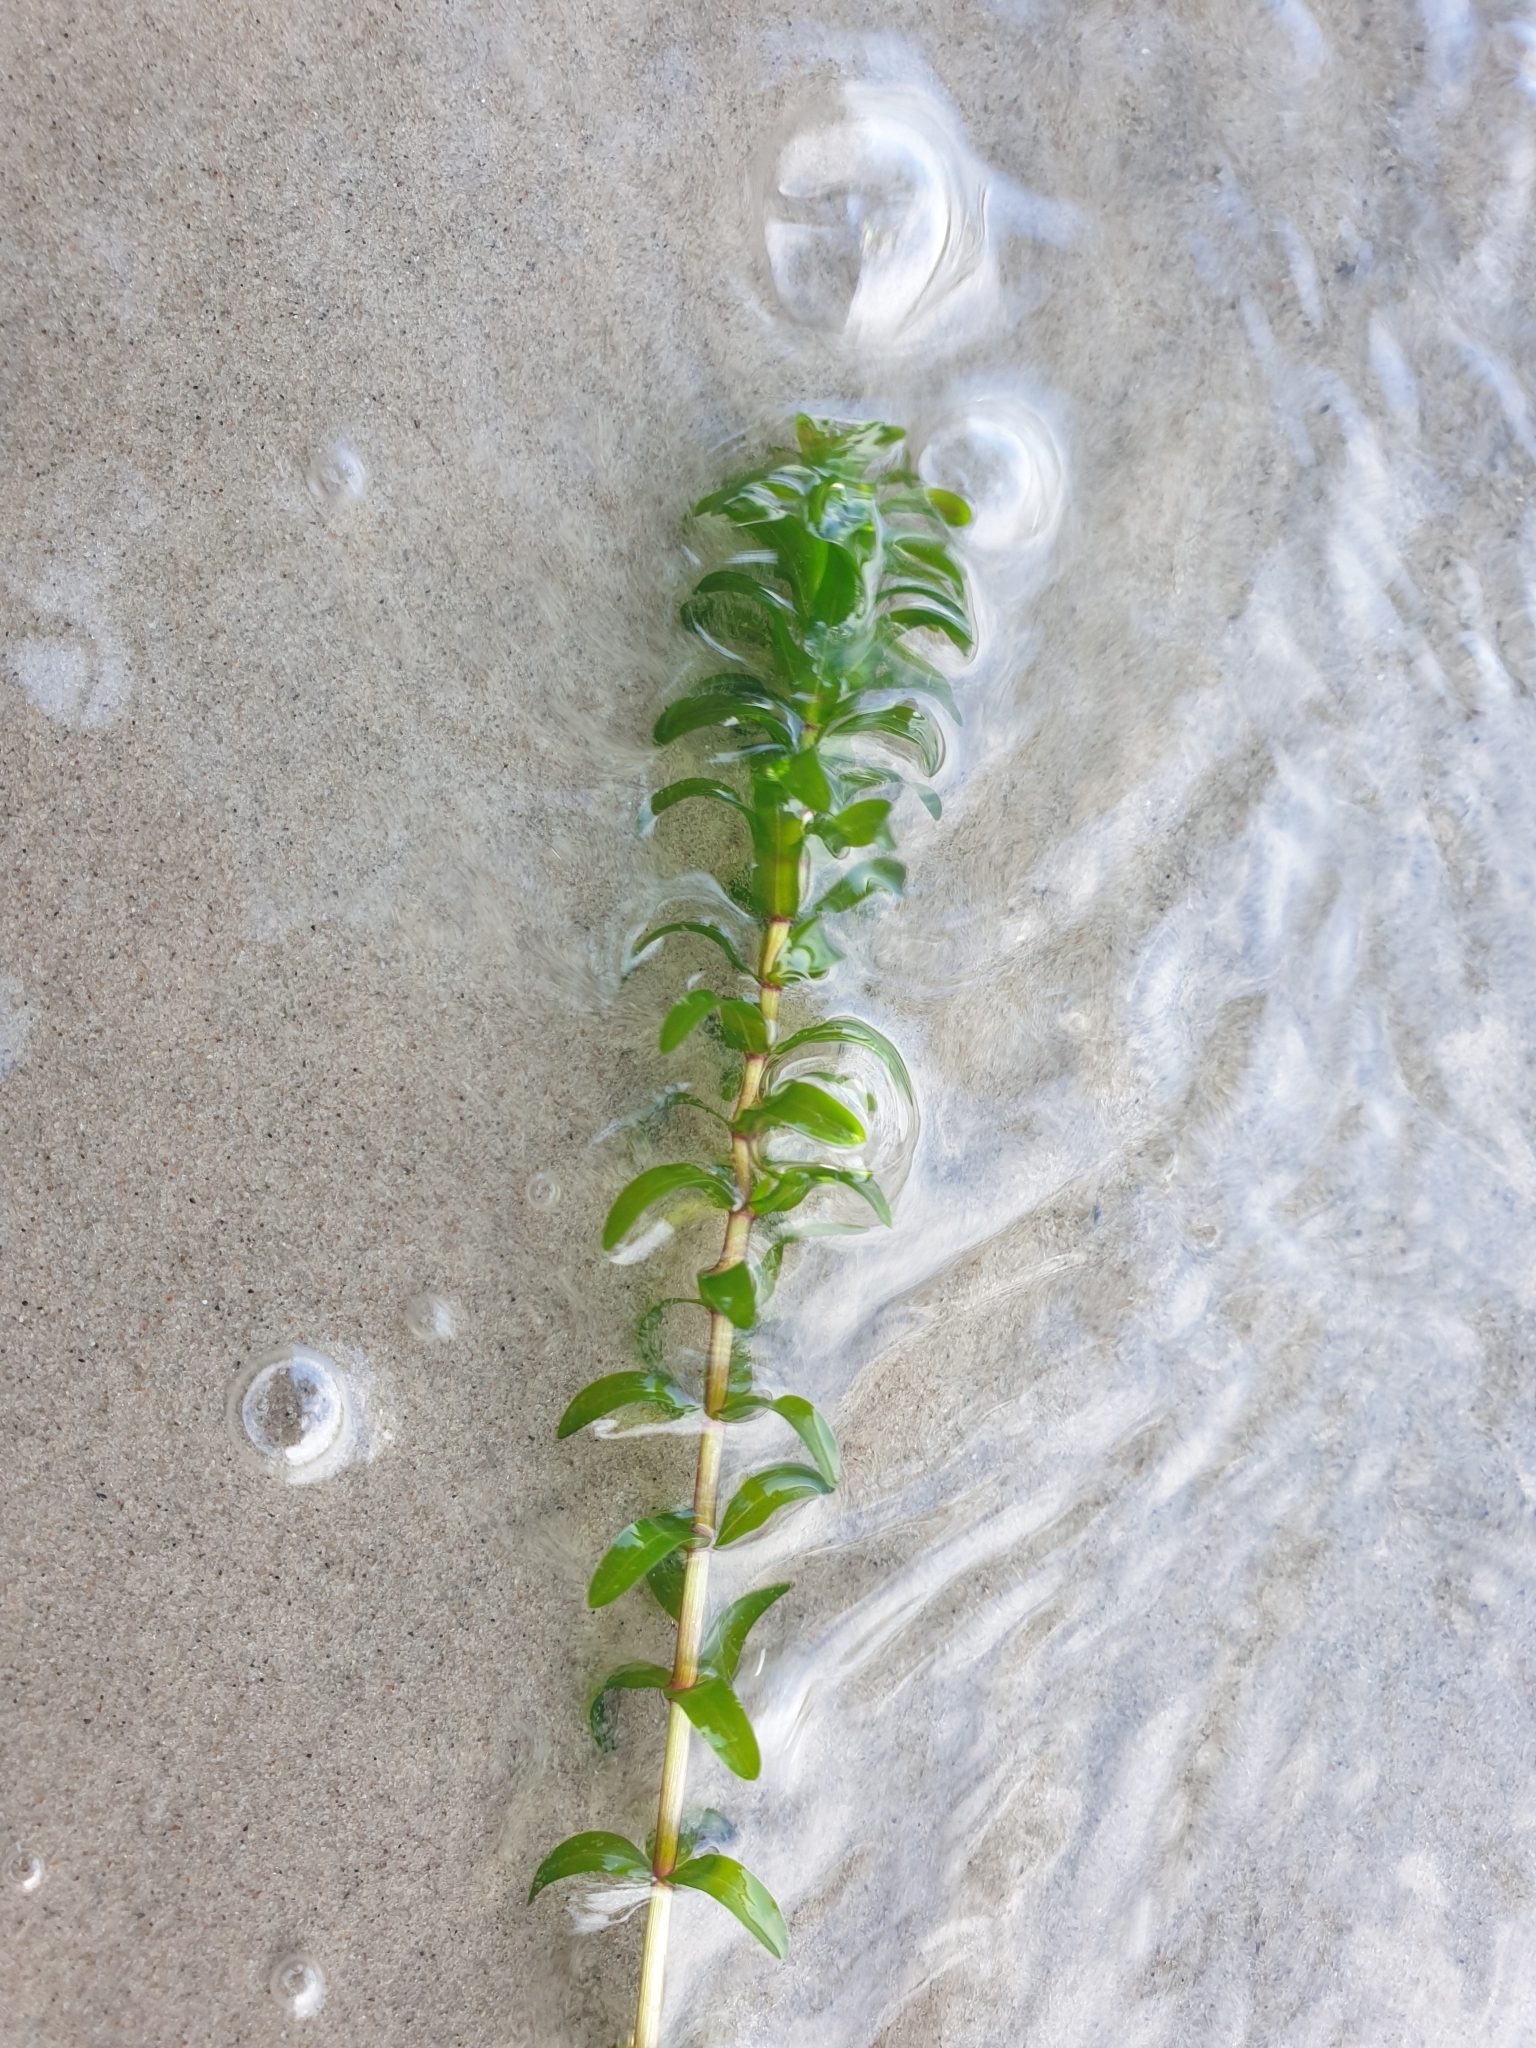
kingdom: Plantae
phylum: Tracheophyta
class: Liliopsida
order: Alismatales
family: Hydrocharitaceae
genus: Elodea
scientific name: Elodea canadensis
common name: Canadian waterweed
